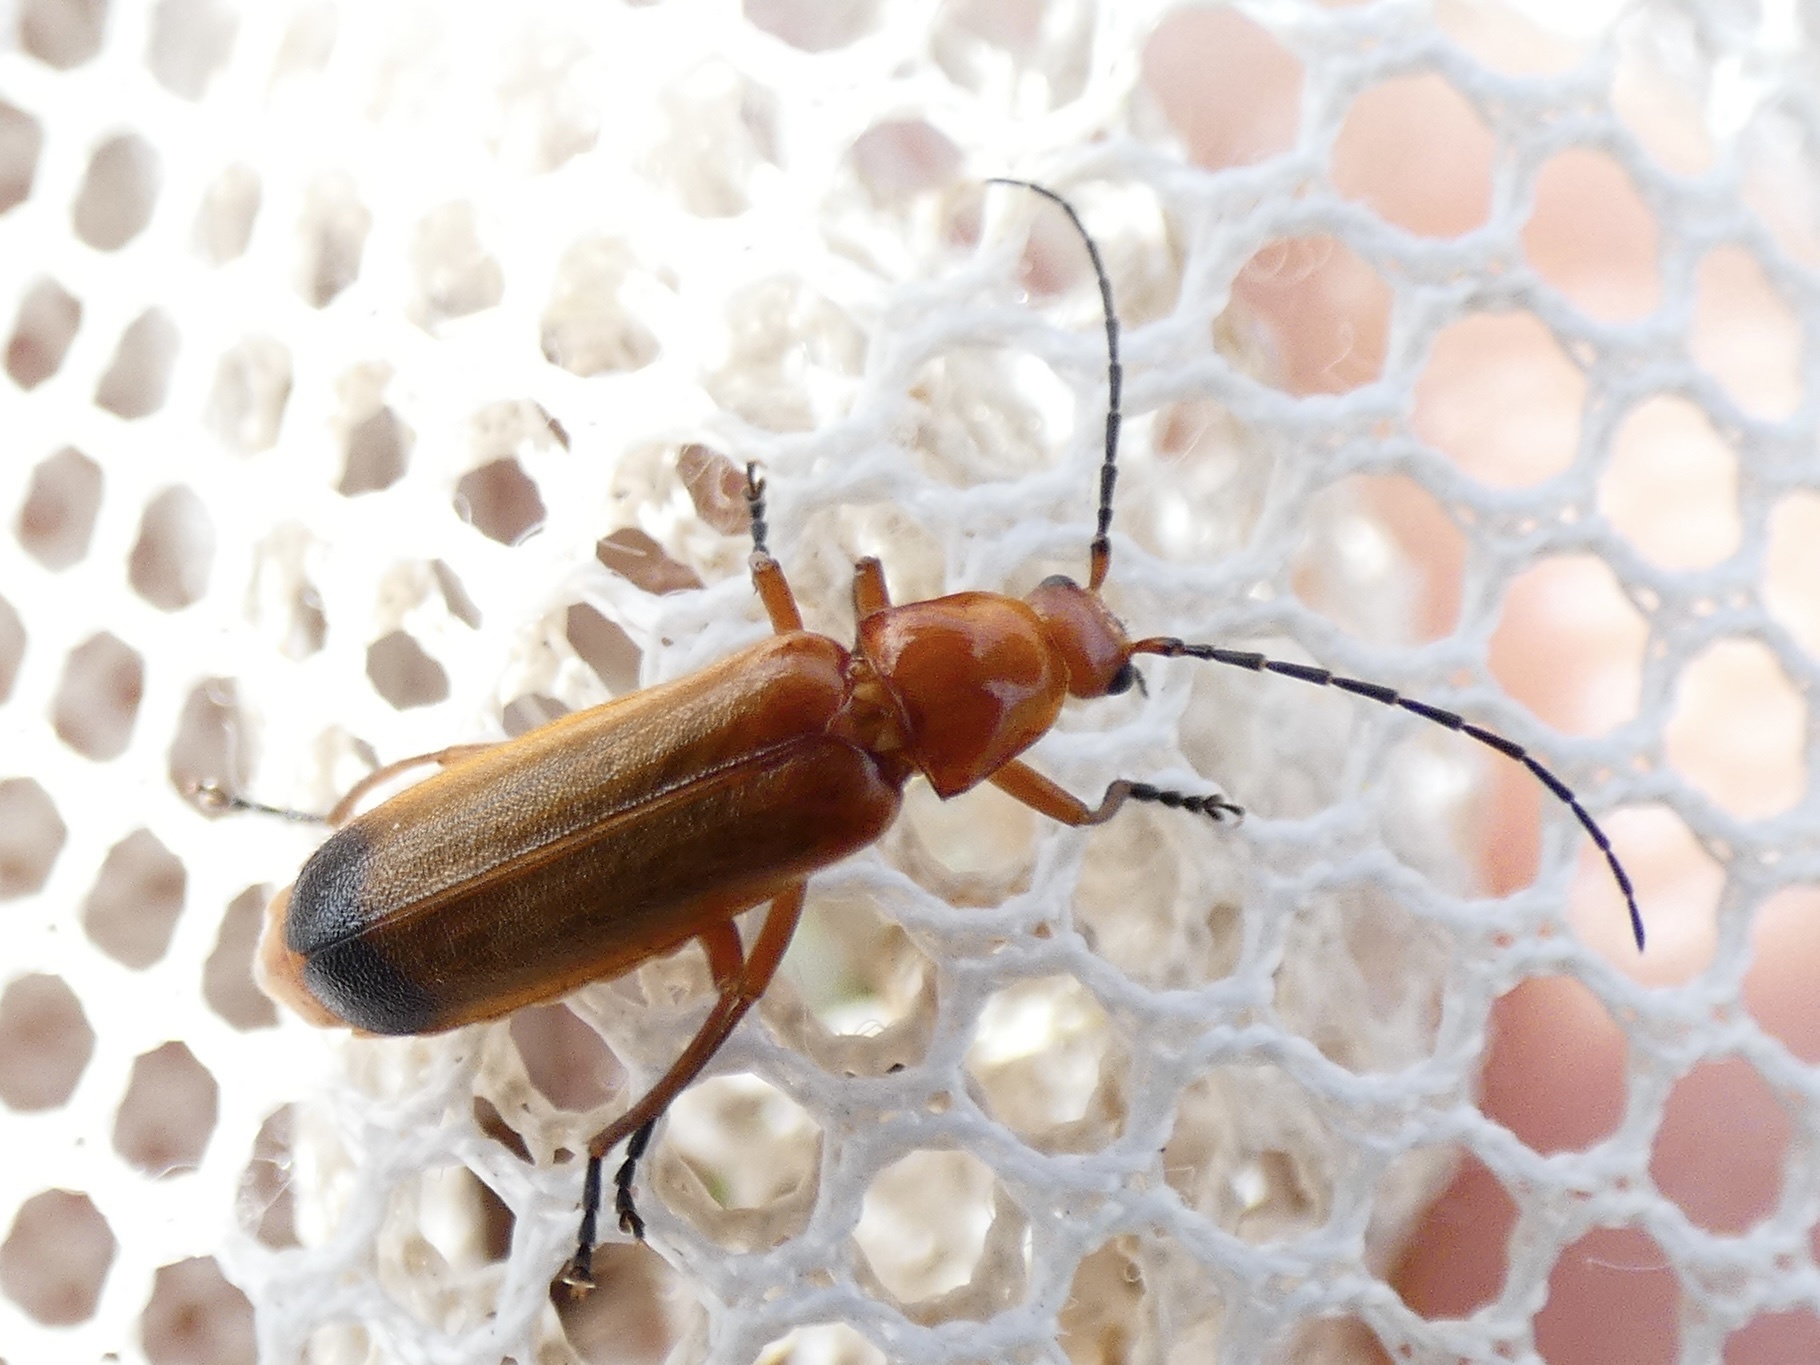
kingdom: Animalia
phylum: Arthropoda
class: Insecta
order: Coleoptera
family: Cantharidae
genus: Rhagonycha
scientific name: Rhagonycha fulva
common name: Common red soldier beetle
